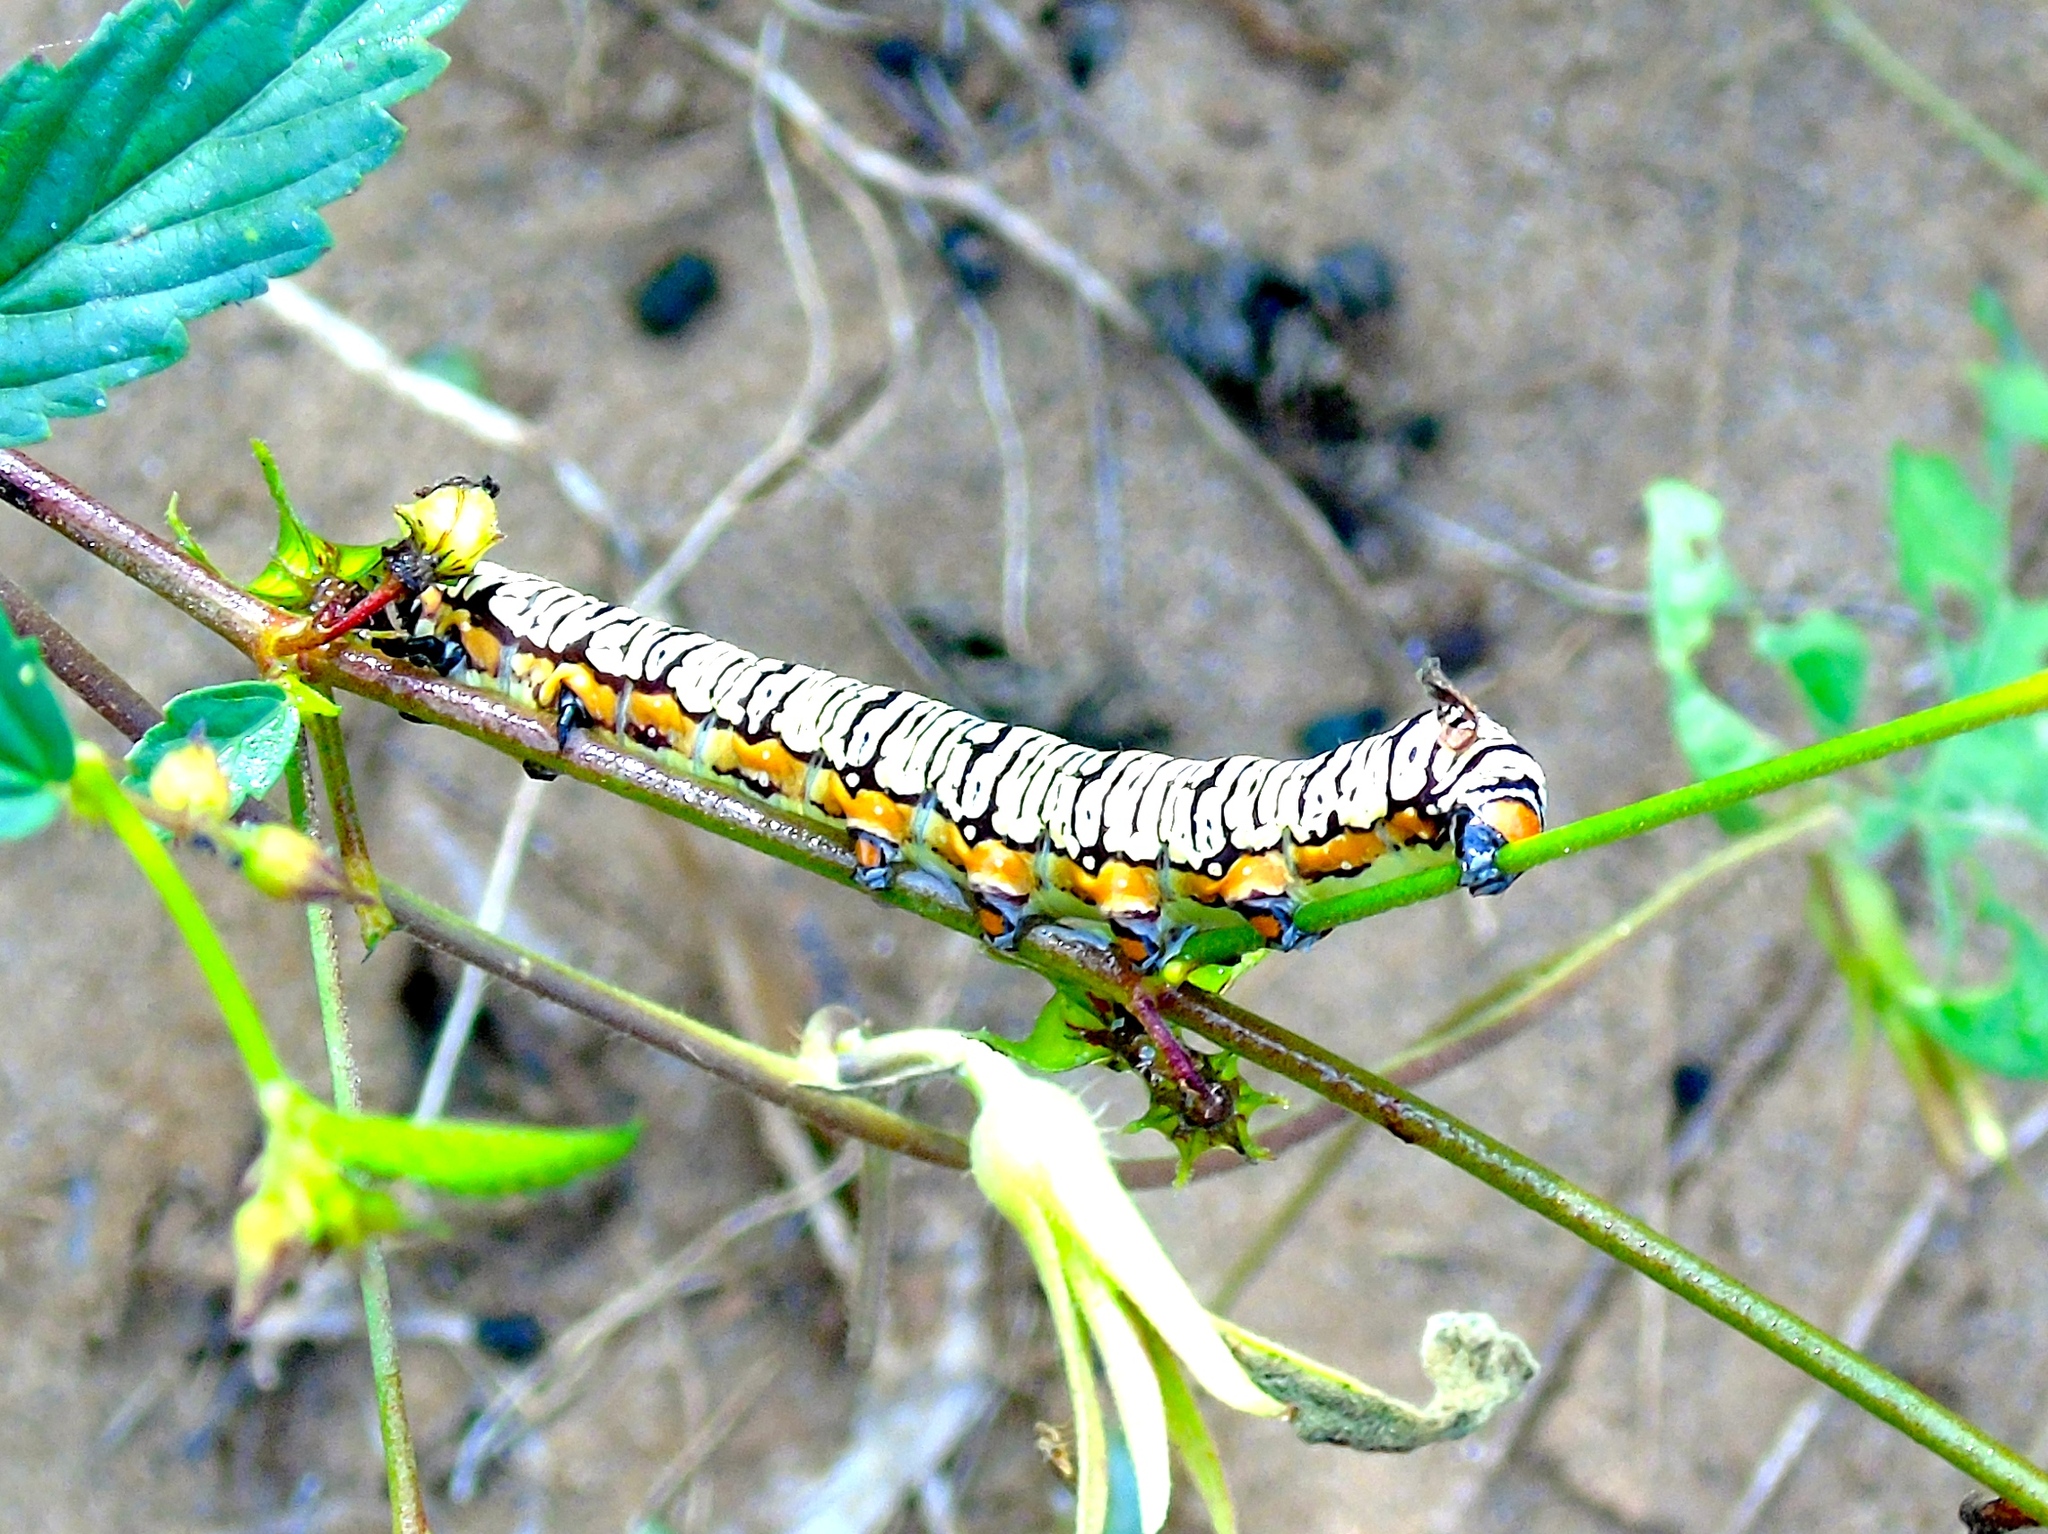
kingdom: Animalia
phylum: Arthropoda
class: Insecta
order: Lepidoptera
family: Erebidae
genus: Diphthera
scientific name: Diphthera festiva
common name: Hieroglyphic moth
